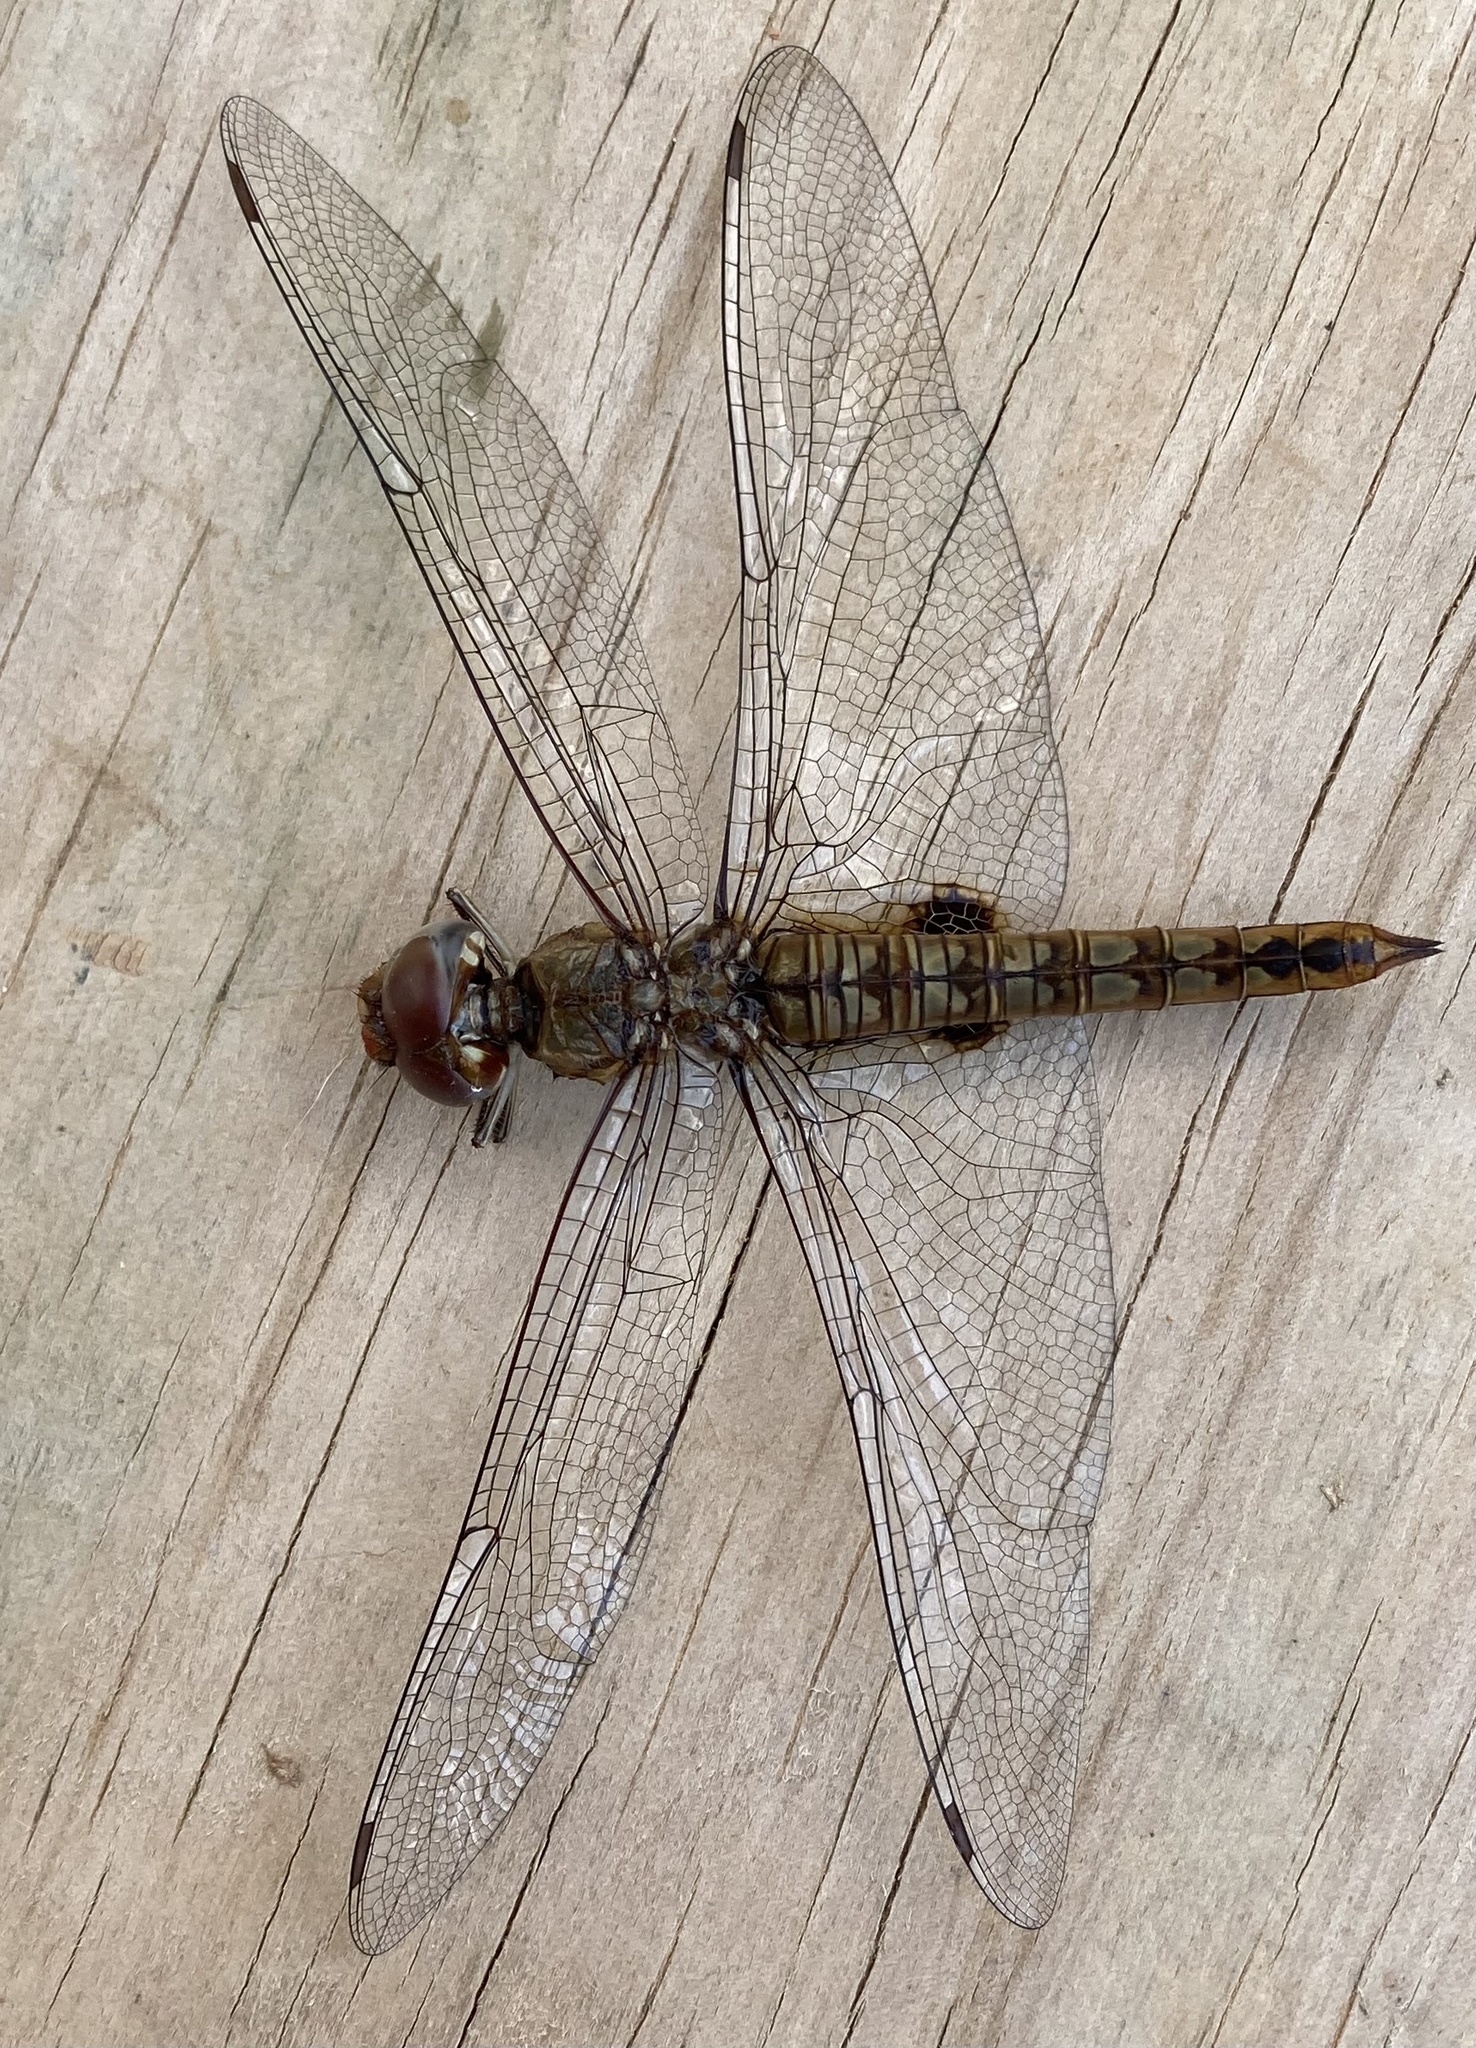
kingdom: Animalia
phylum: Arthropoda
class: Insecta
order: Odonata
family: Libellulidae
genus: Pantala
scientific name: Pantala hymenaea
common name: Spot-winged glider
